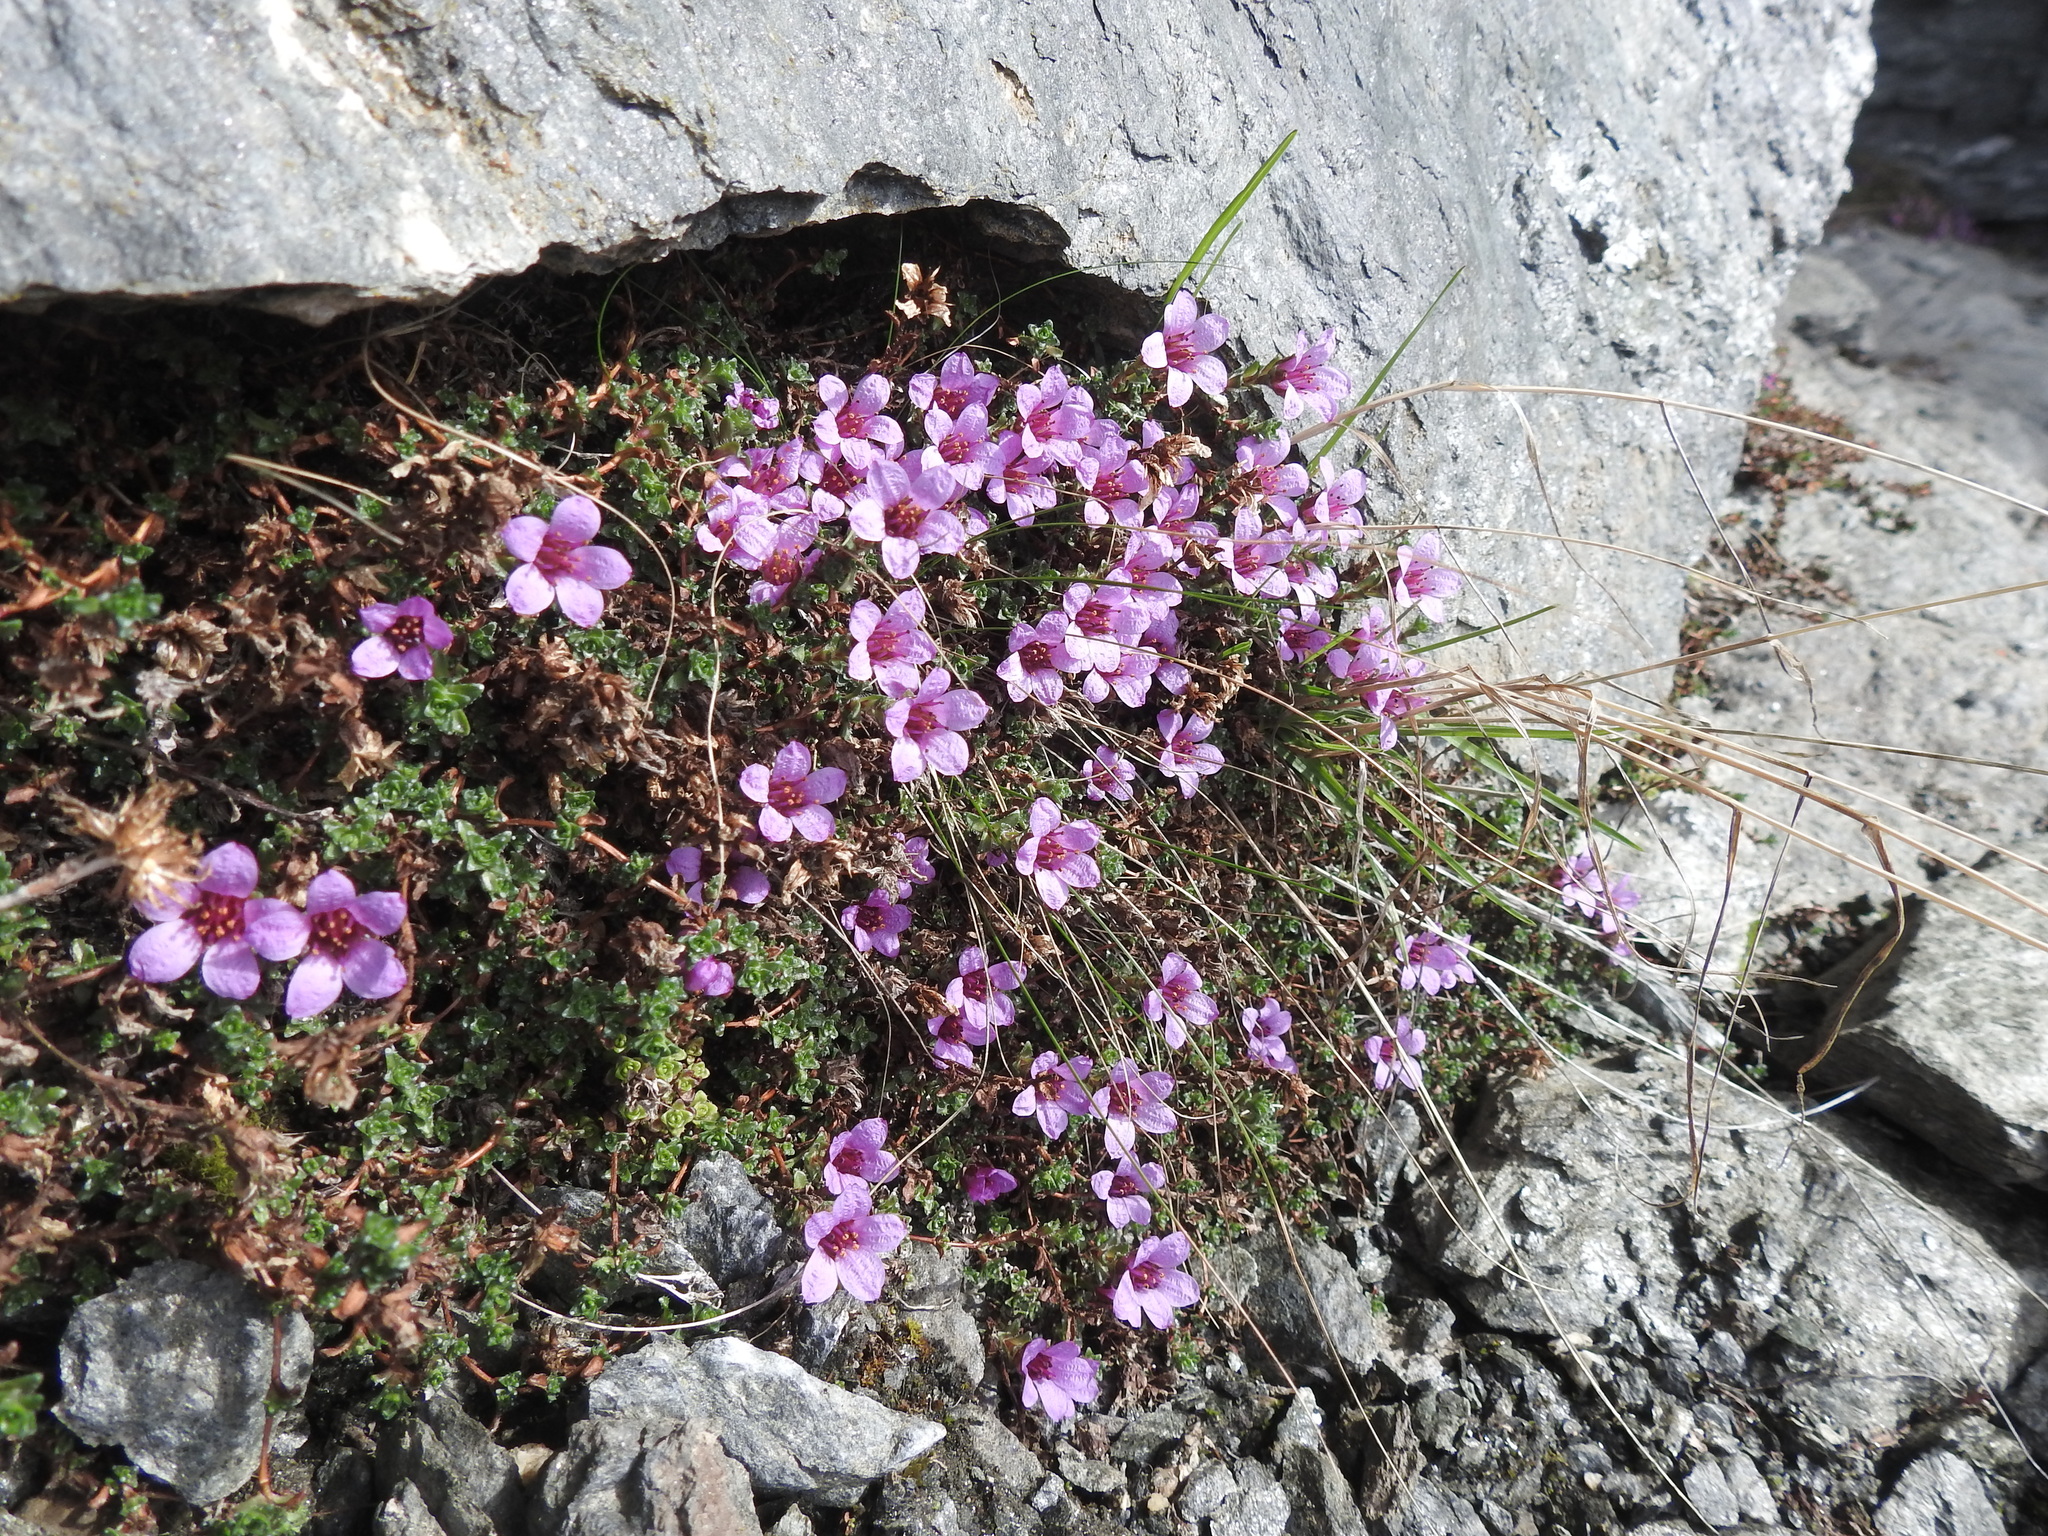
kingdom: Plantae
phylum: Tracheophyta
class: Magnoliopsida
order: Saxifragales
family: Saxifragaceae
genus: Saxifraga
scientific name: Saxifraga oppositifolia
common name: Purple saxifrage
